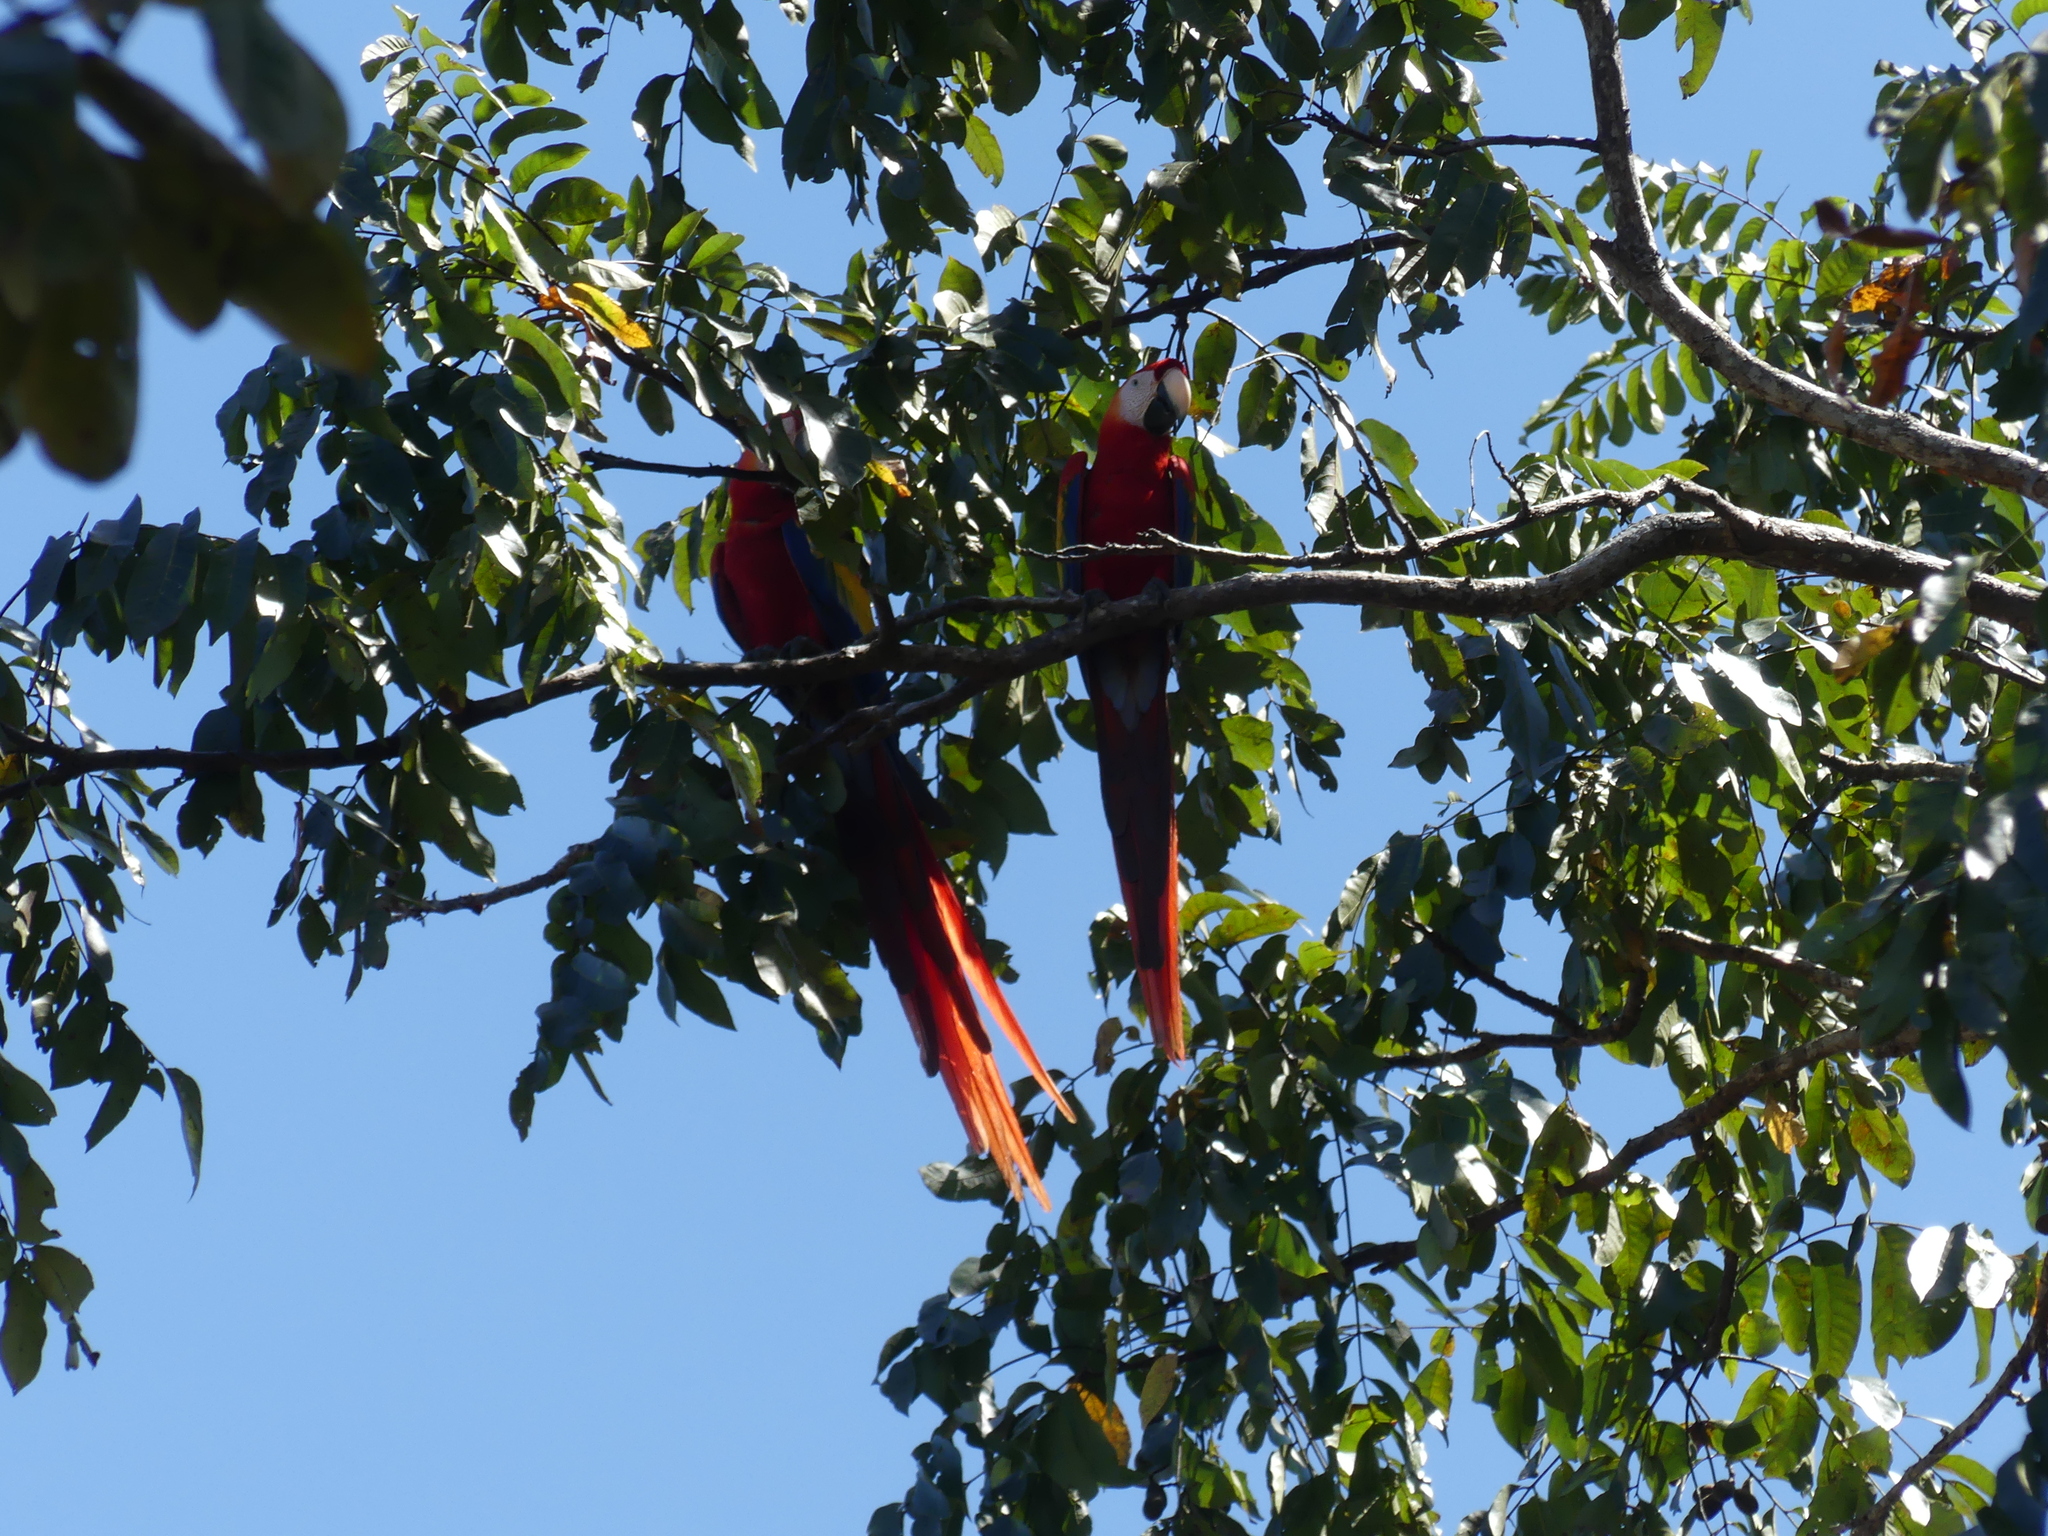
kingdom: Animalia
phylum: Chordata
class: Aves
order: Psittaciformes
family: Psittacidae
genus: Ara
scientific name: Ara macao
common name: Scarlet macaw
